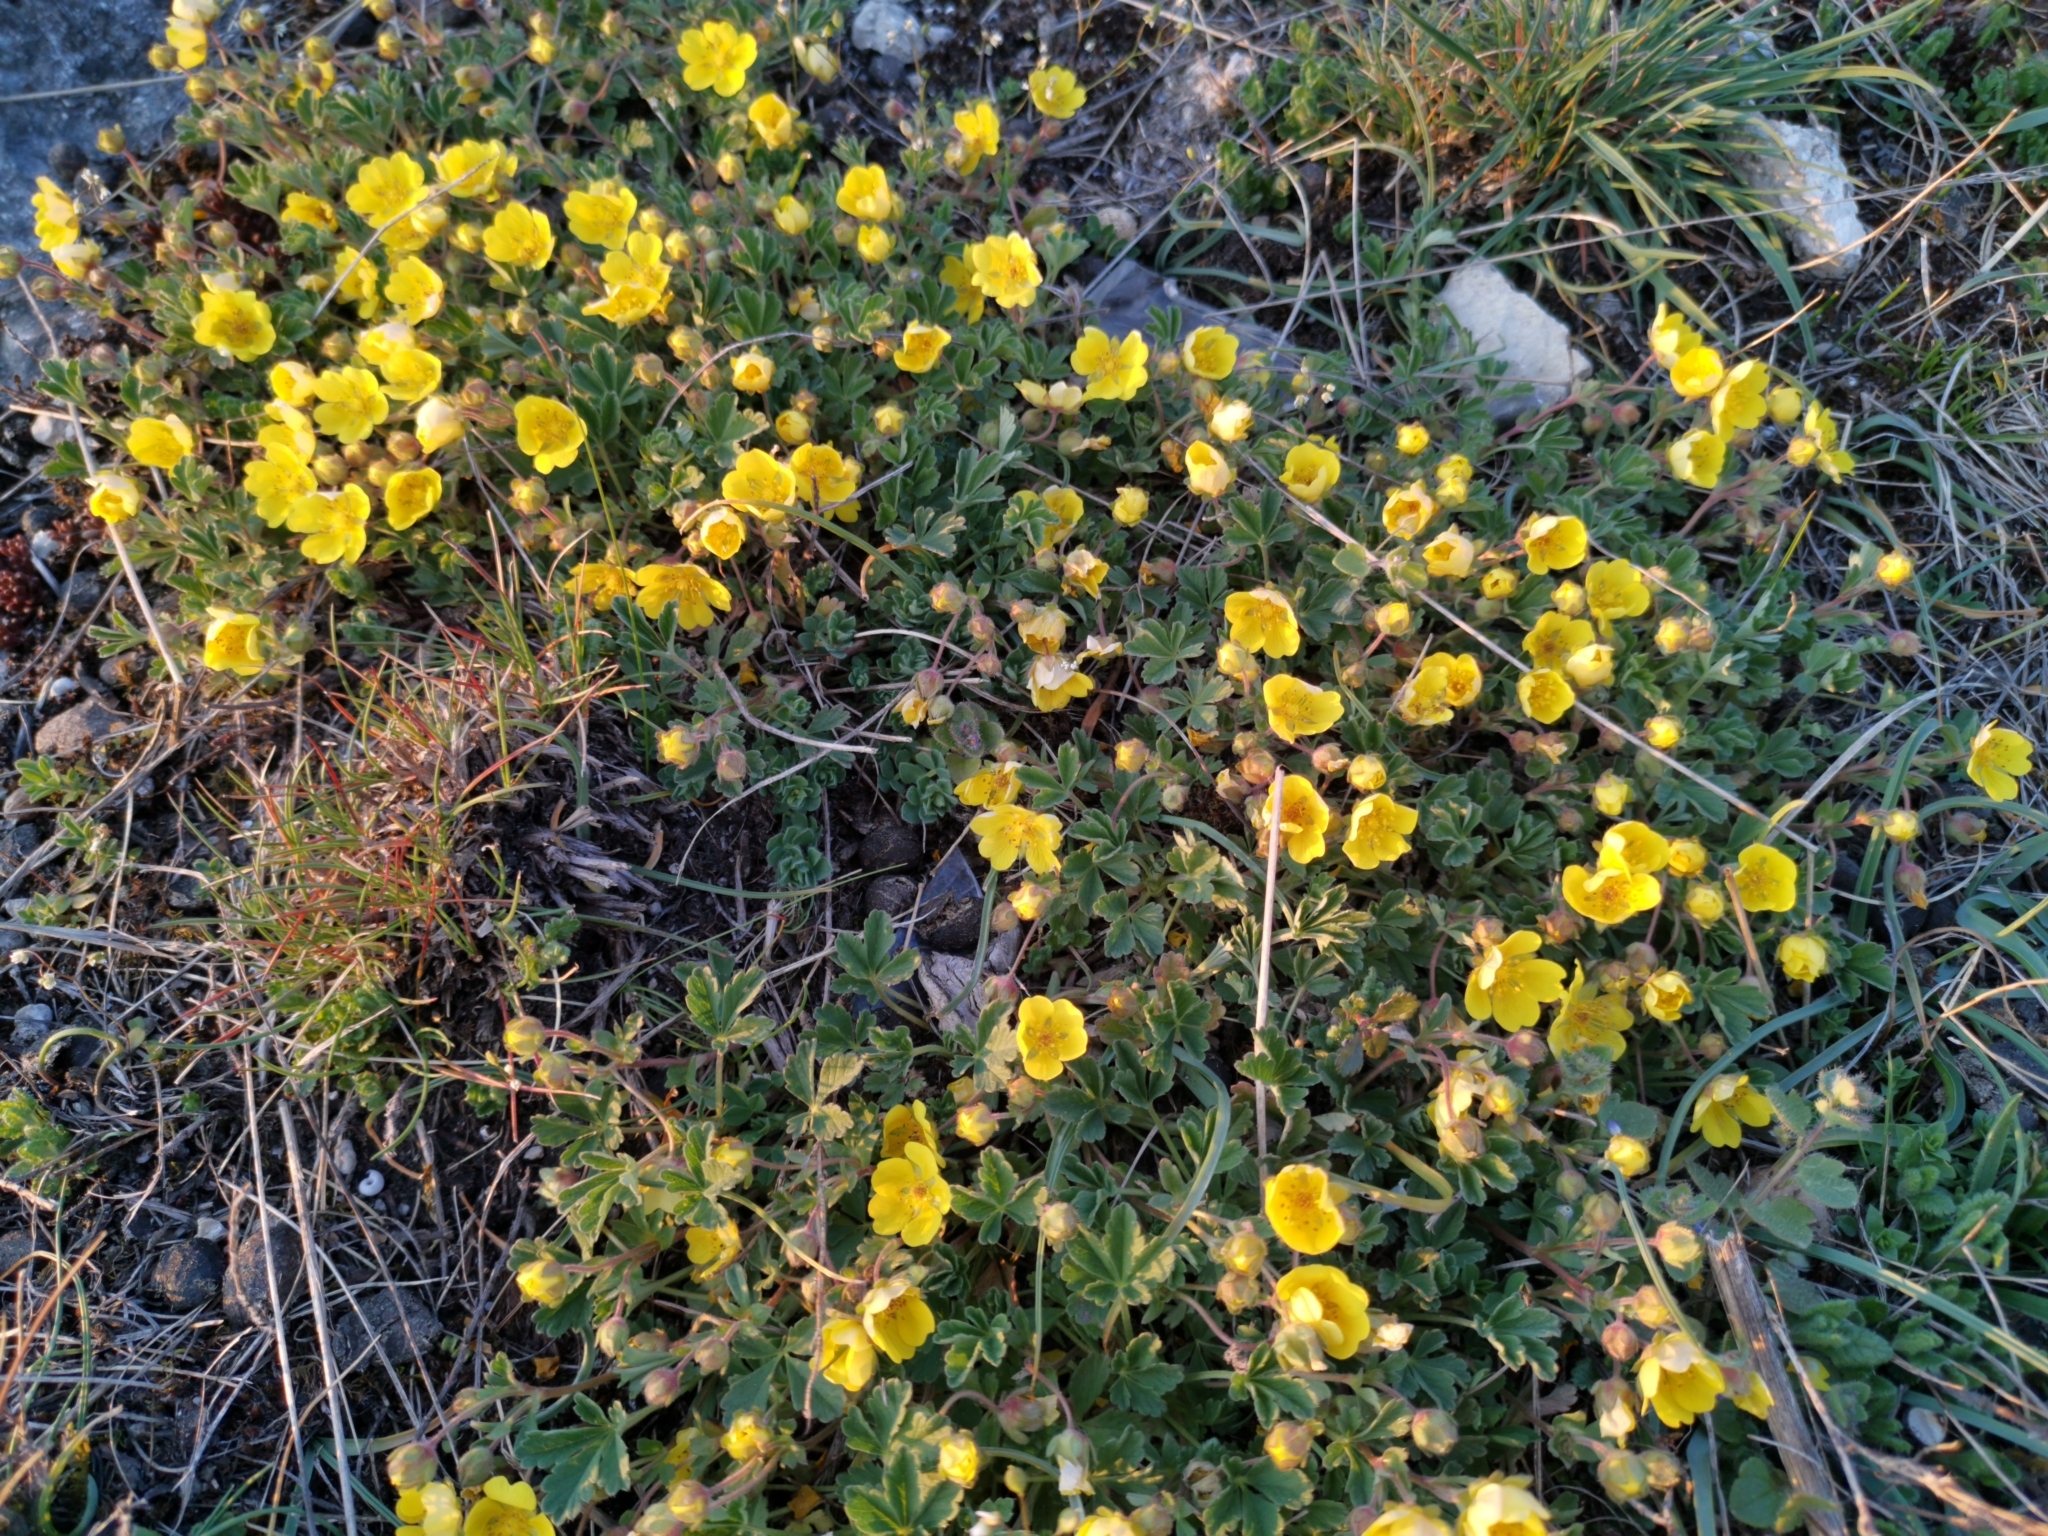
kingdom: Plantae
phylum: Tracheophyta
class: Magnoliopsida
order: Rosales
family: Rosaceae
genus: Potentilla
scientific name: Potentilla incana
